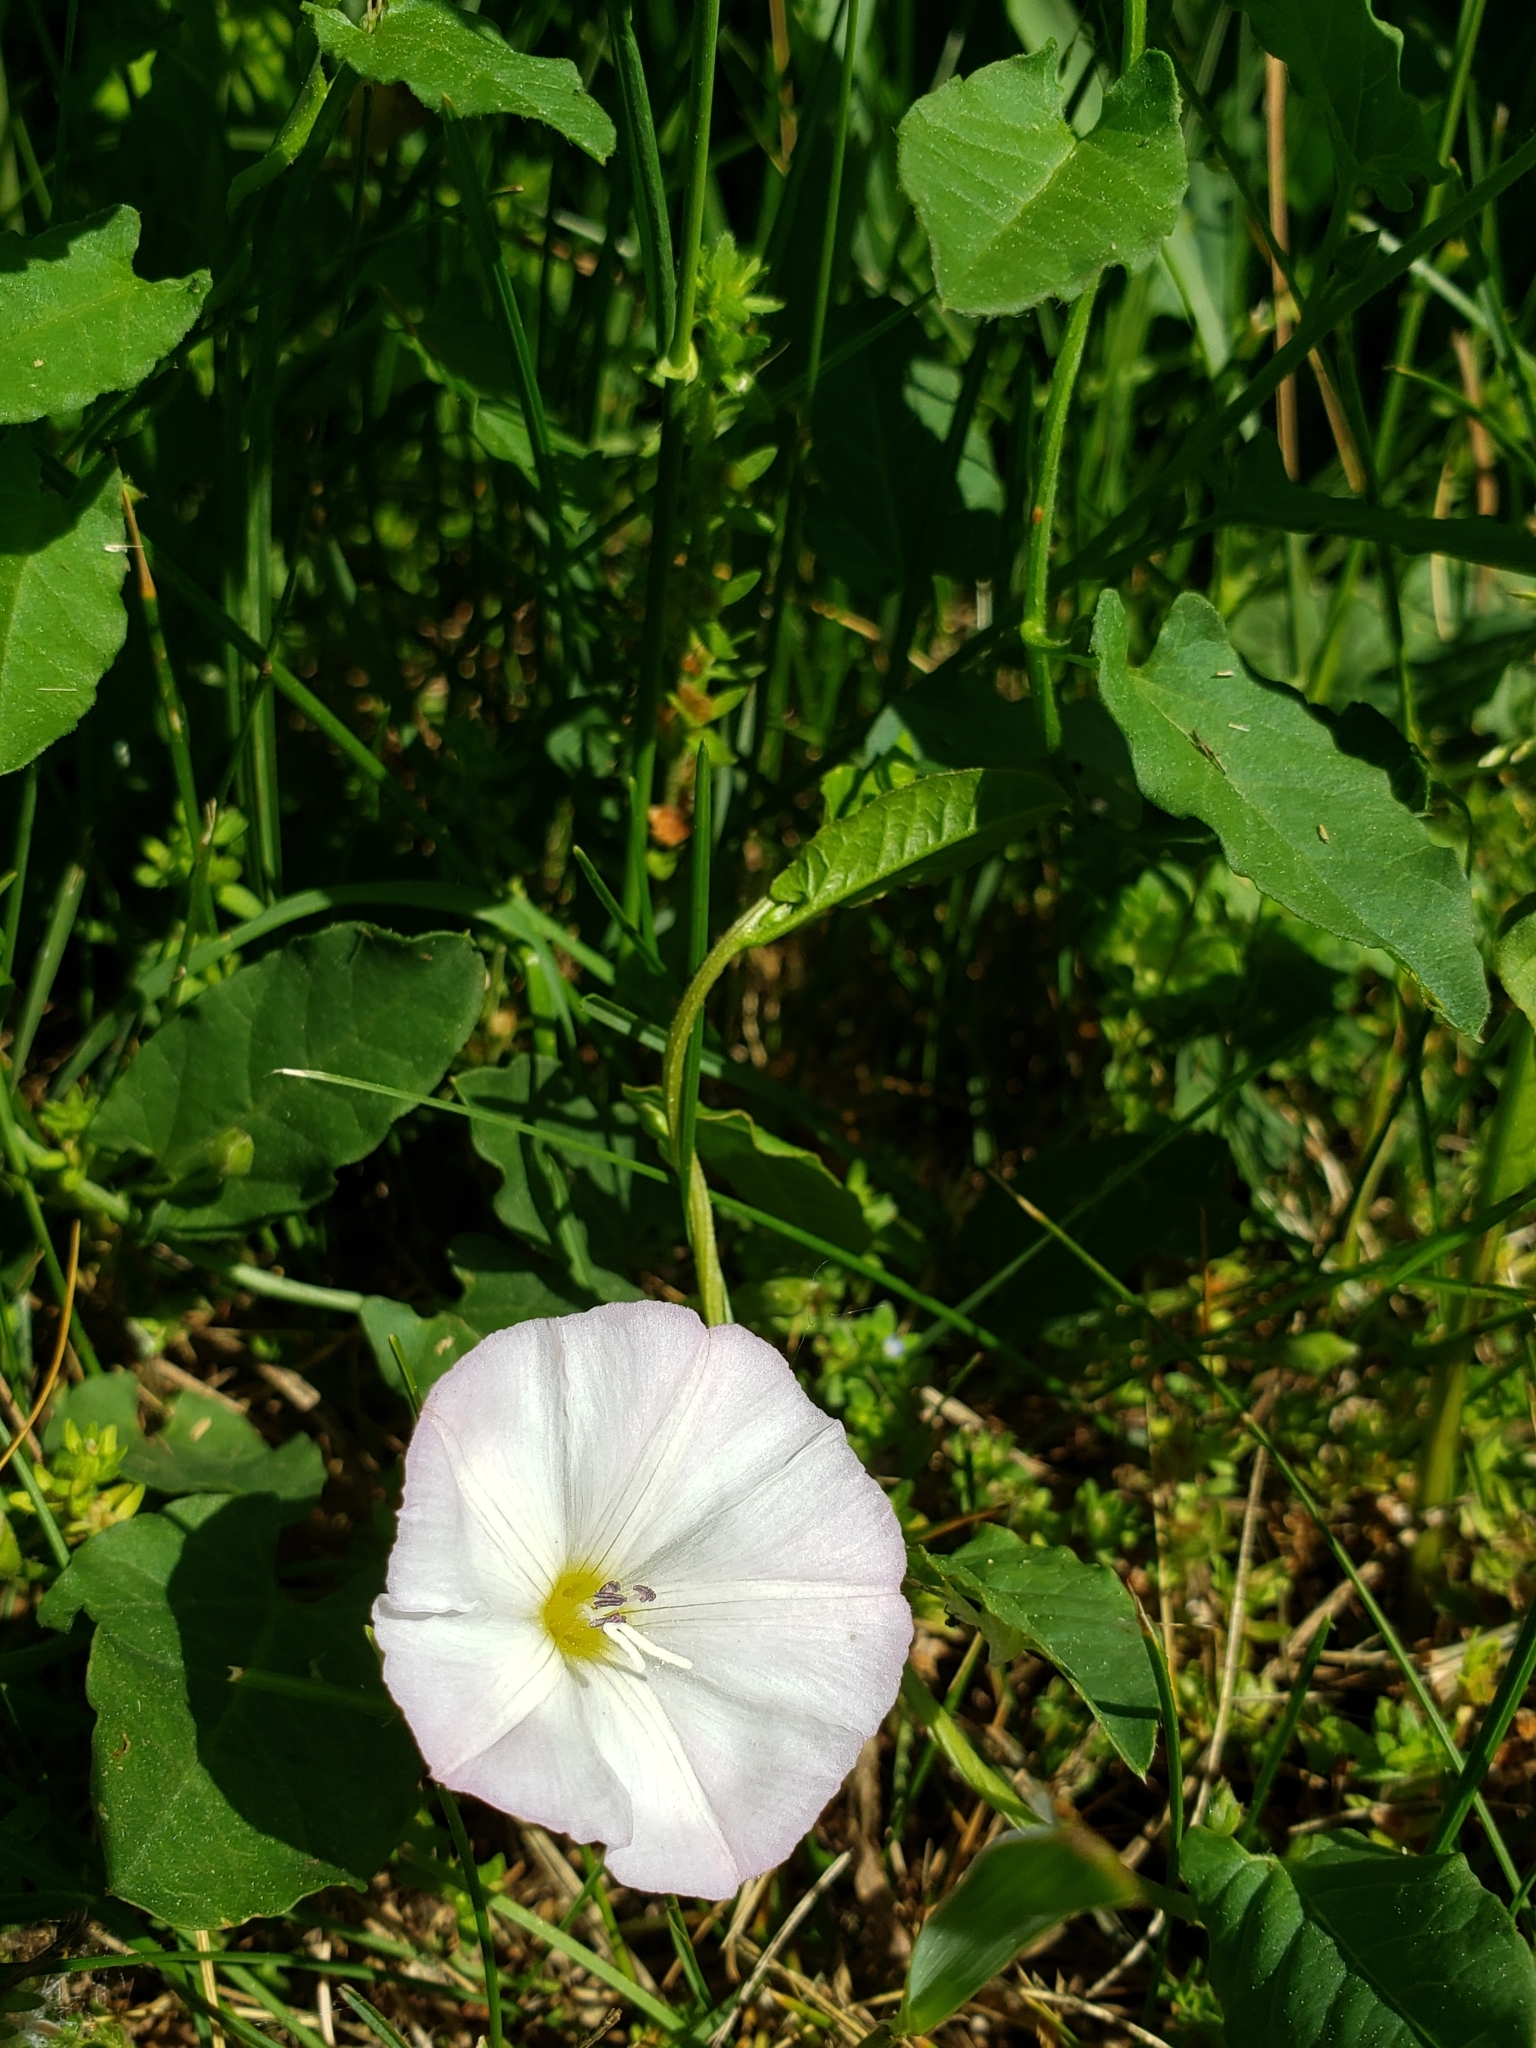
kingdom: Plantae
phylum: Tracheophyta
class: Magnoliopsida
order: Solanales
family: Convolvulaceae
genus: Convolvulus
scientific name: Convolvulus arvensis
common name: Field bindweed
